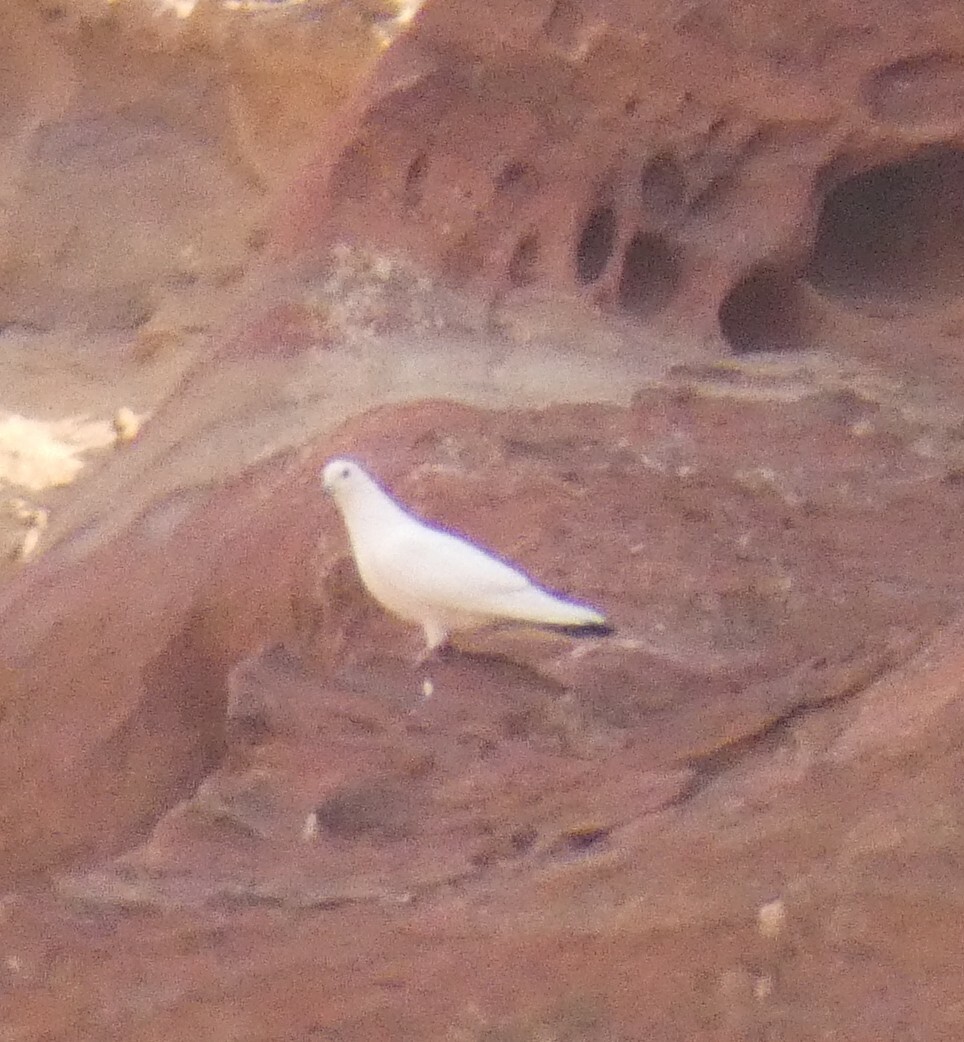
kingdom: Animalia
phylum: Chordata
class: Aves
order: Columbiformes
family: Columbidae
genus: Columba
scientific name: Columba livia
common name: Rock pigeon
